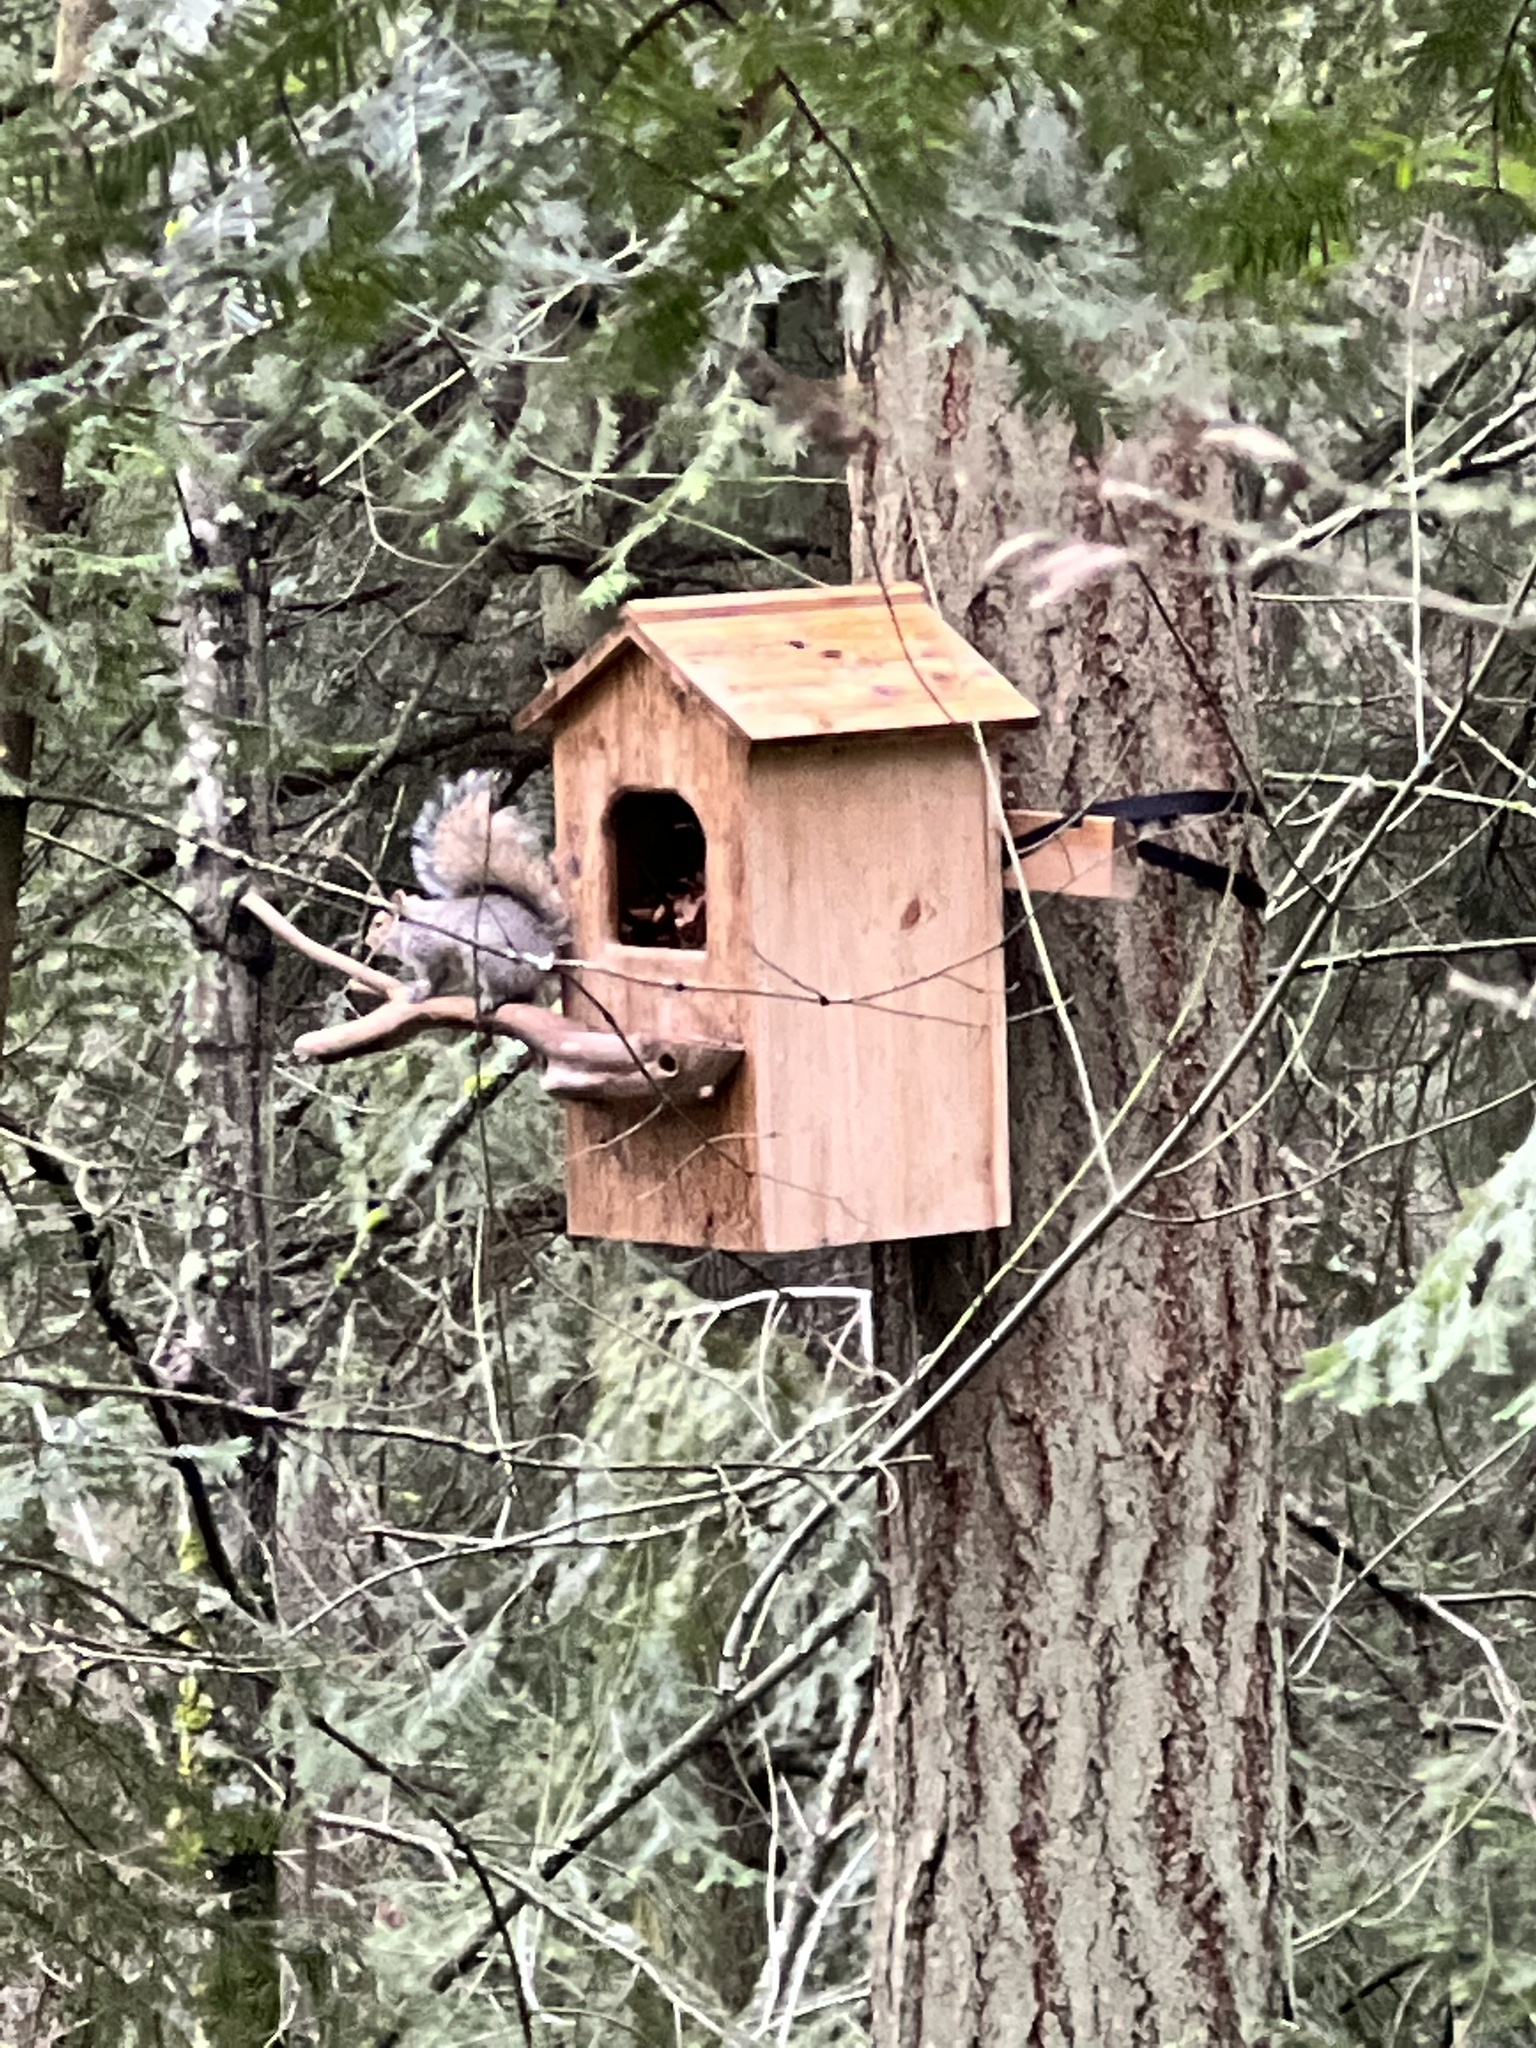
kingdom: Animalia
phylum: Chordata
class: Mammalia
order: Rodentia
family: Sciuridae
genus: Sciurus
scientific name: Sciurus carolinensis
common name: Eastern gray squirrel
